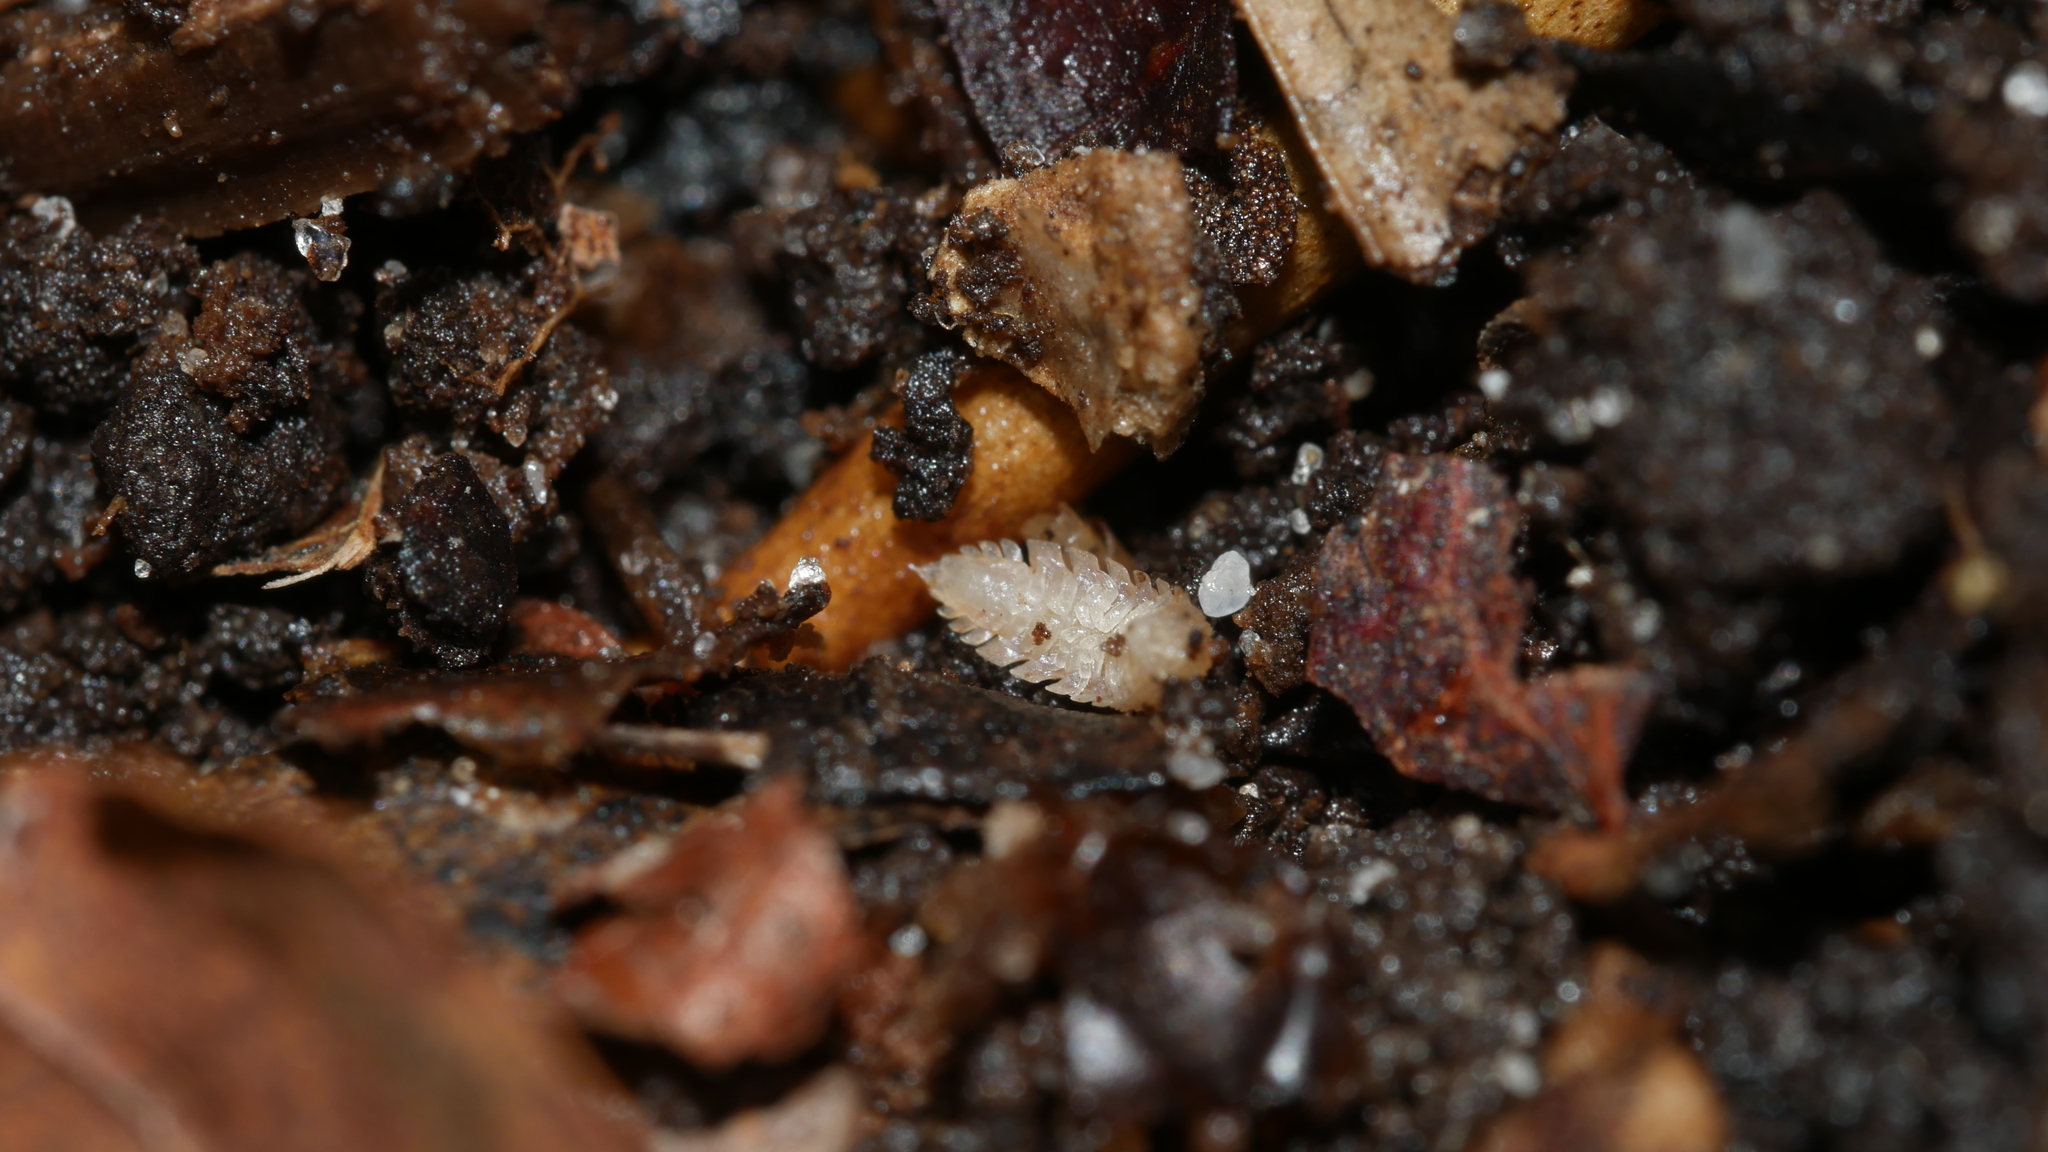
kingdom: Animalia
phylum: Arthropoda
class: Malacostraca
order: Isopoda
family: Trichoniscidae
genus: Haplophthalmus
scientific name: Haplophthalmus danicus
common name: Pillbug
